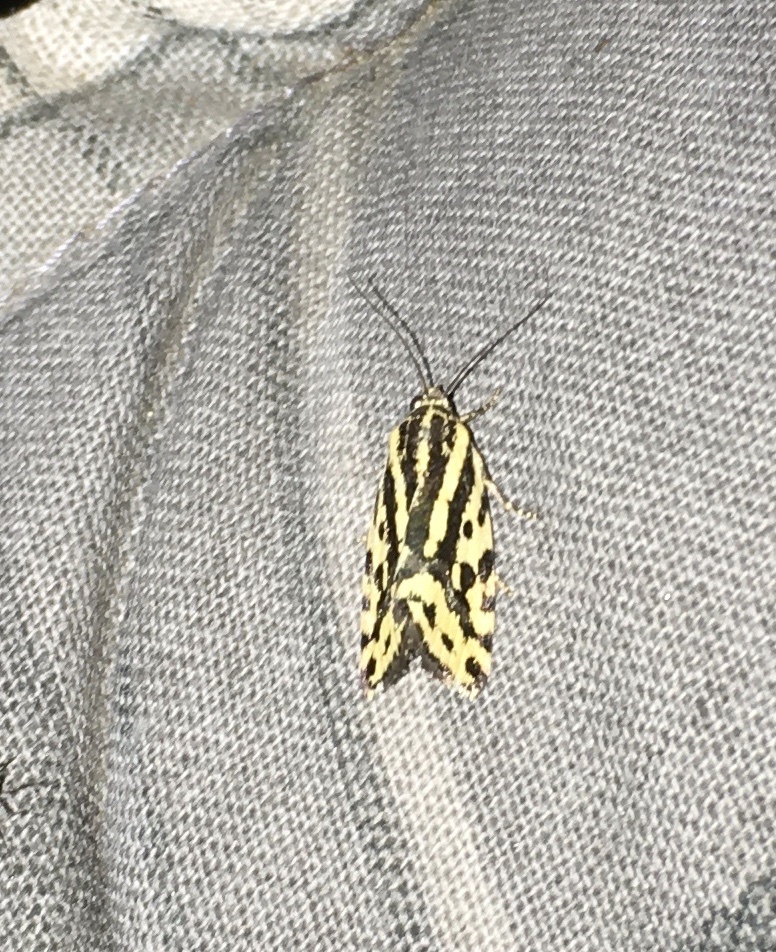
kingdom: Animalia
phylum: Arthropoda
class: Insecta
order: Lepidoptera
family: Noctuidae
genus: Acontia
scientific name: Acontia trabealis
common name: Spotted sulphur
